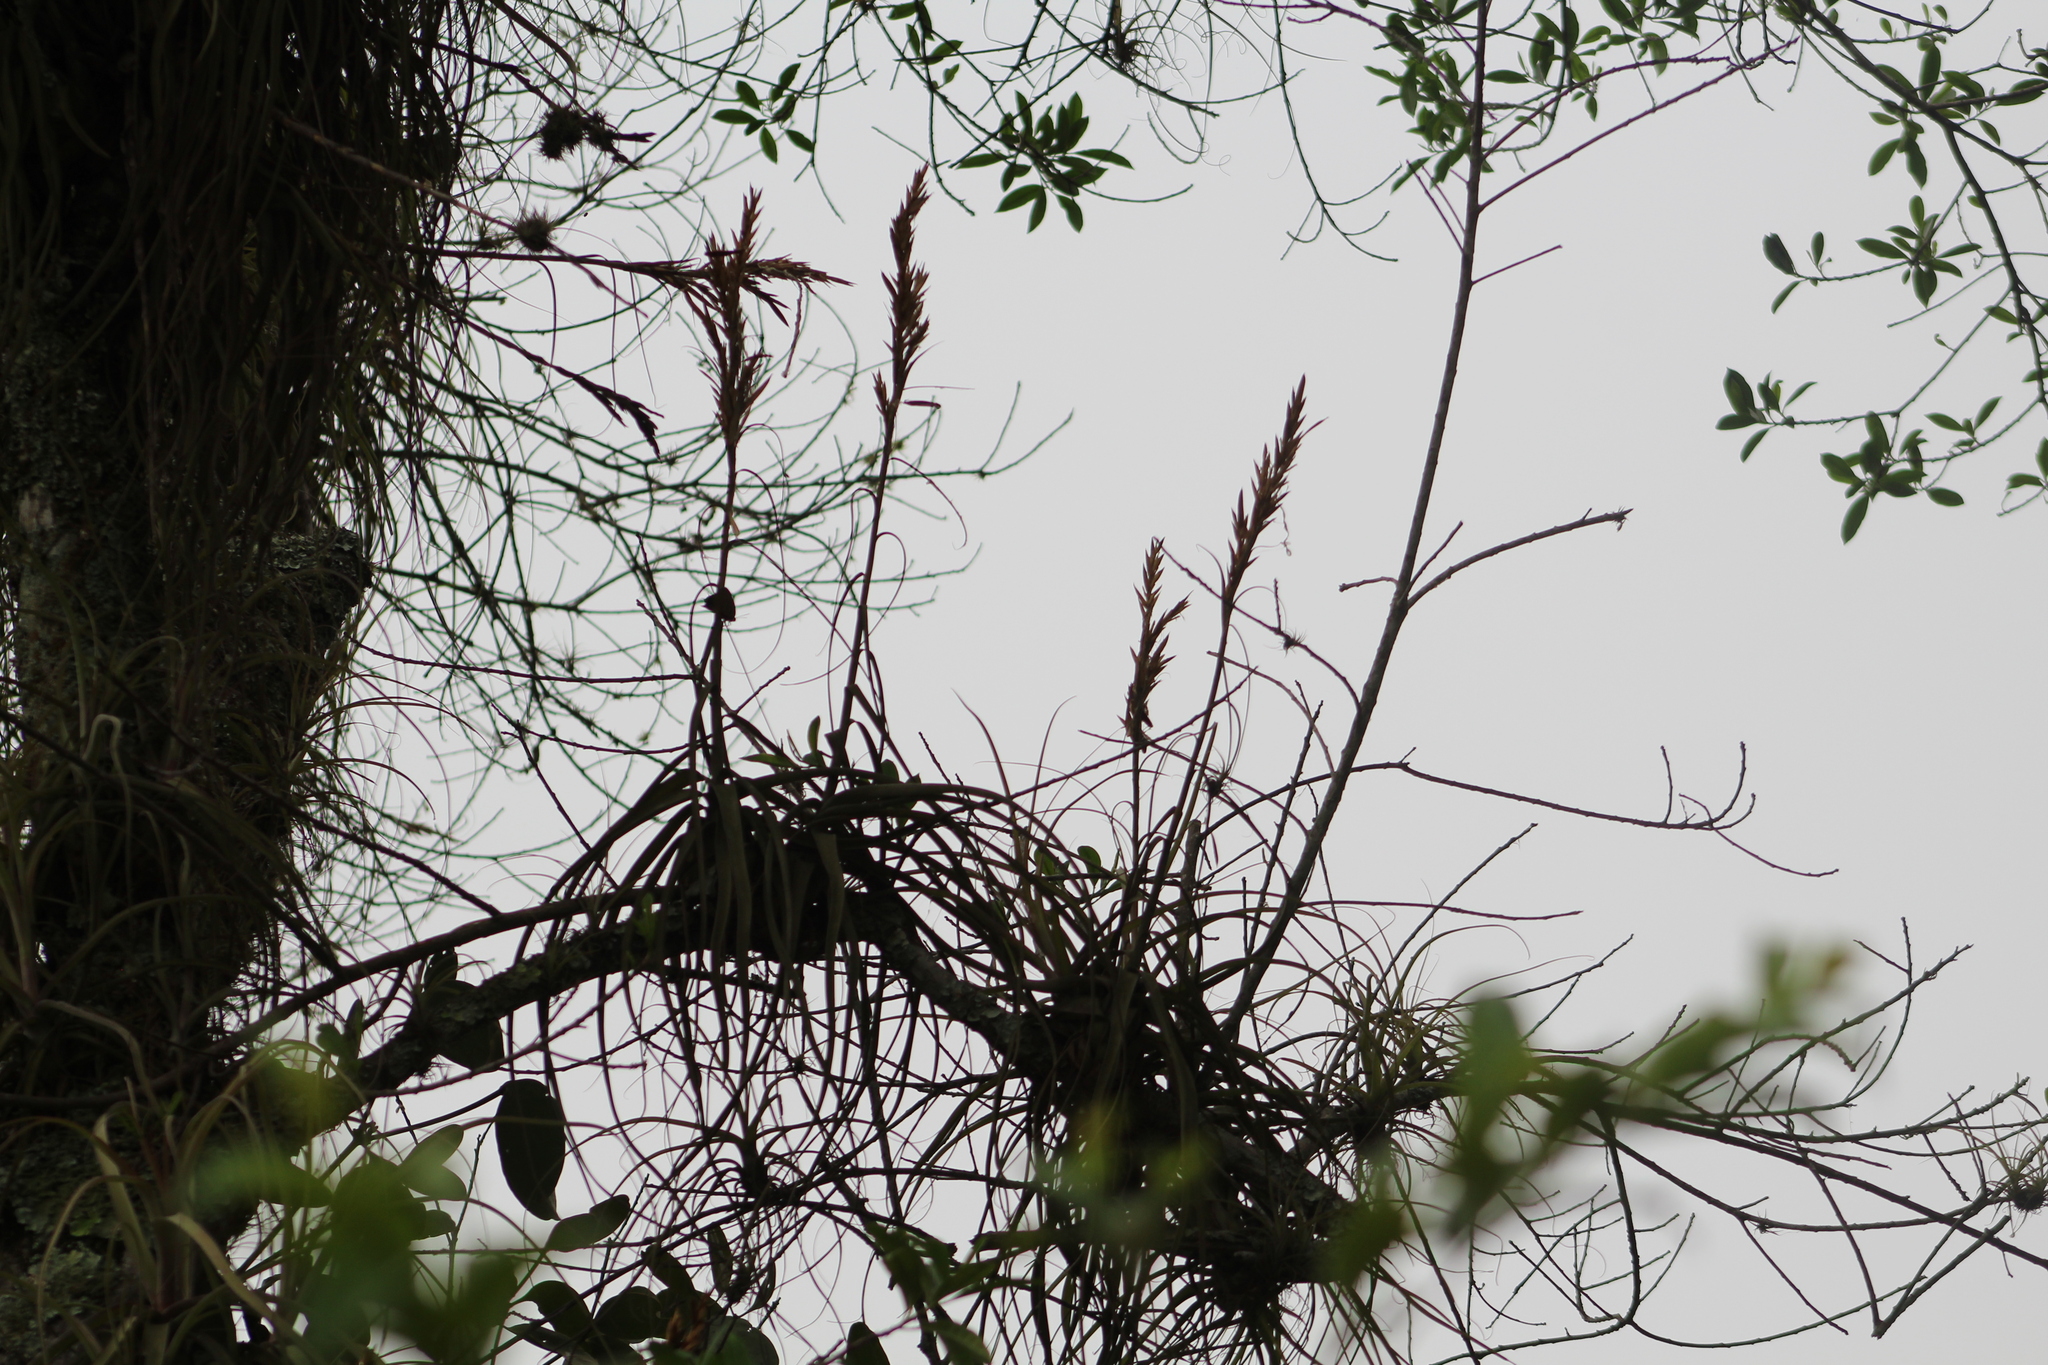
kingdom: Plantae
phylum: Tracheophyta
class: Liliopsida
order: Poales
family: Bromeliaceae
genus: Tillandsia
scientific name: Tillandsia balbisiana
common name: Northern needleleaf
